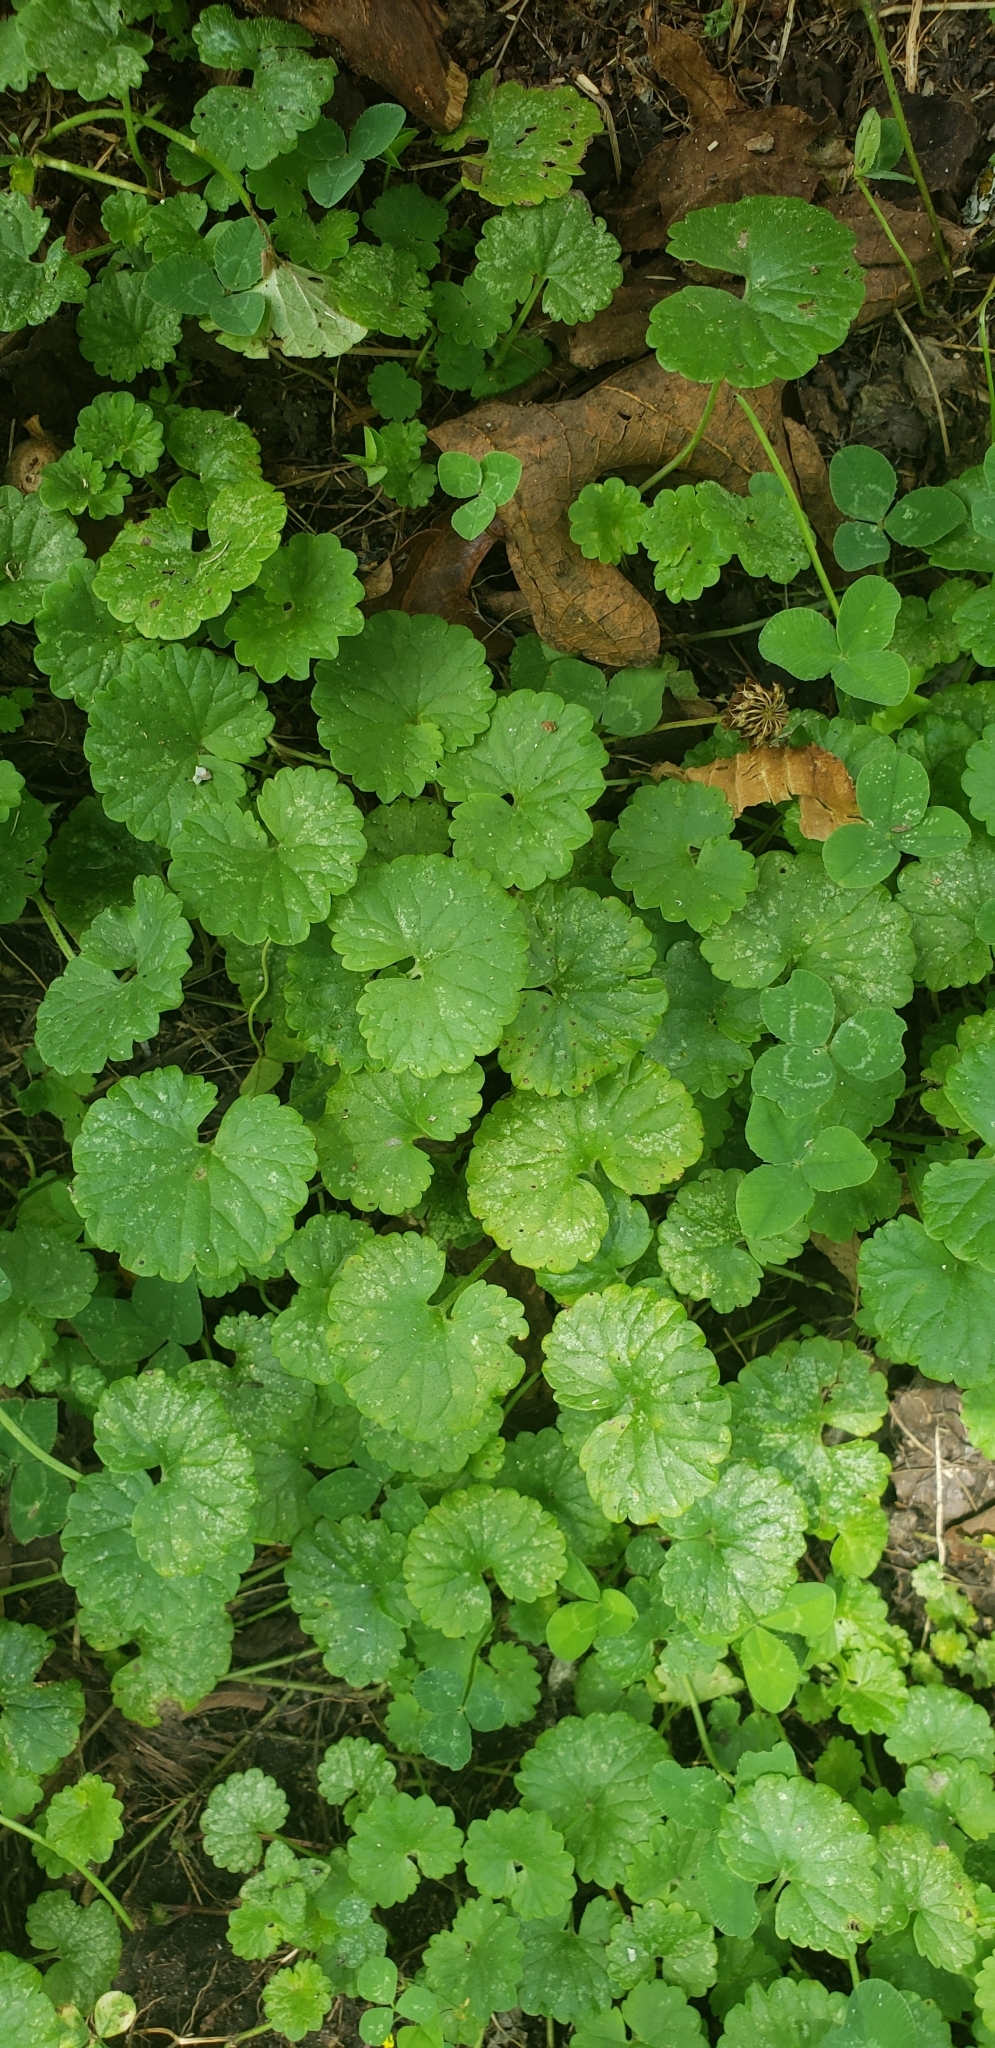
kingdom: Plantae
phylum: Tracheophyta
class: Magnoliopsida
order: Lamiales
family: Lamiaceae
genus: Glechoma
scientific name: Glechoma hederacea
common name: Ground ivy
